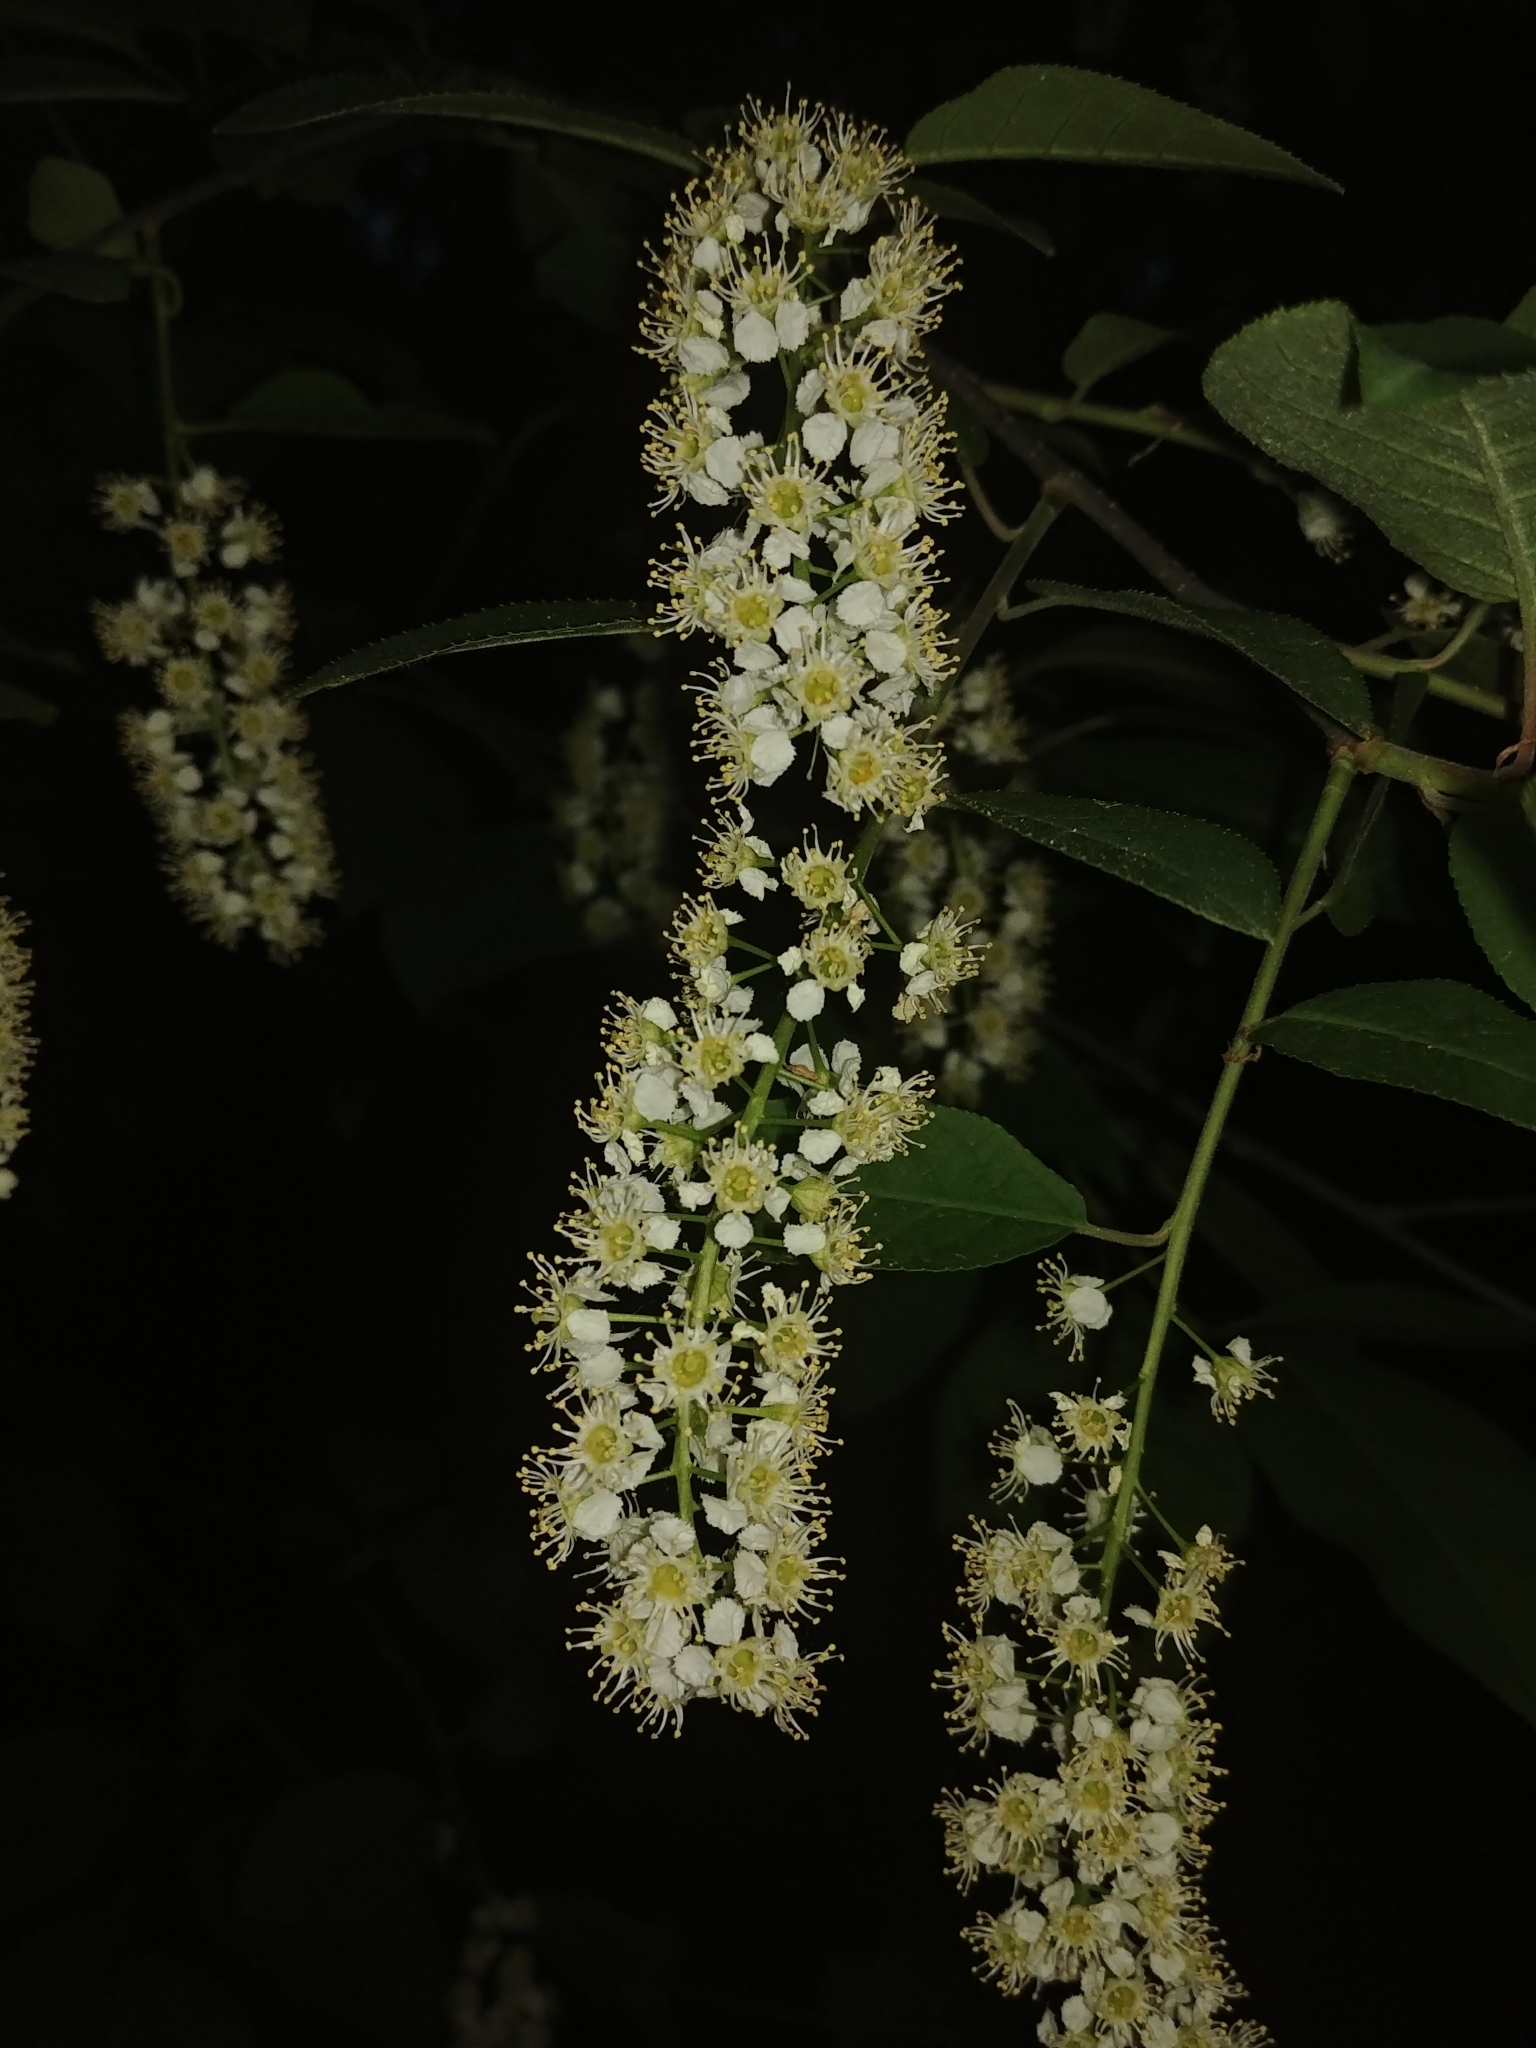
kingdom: Plantae
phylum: Tracheophyta
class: Magnoliopsida
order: Rosales
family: Rosaceae
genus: Prunus
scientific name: Prunus serotina
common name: Black cherry
